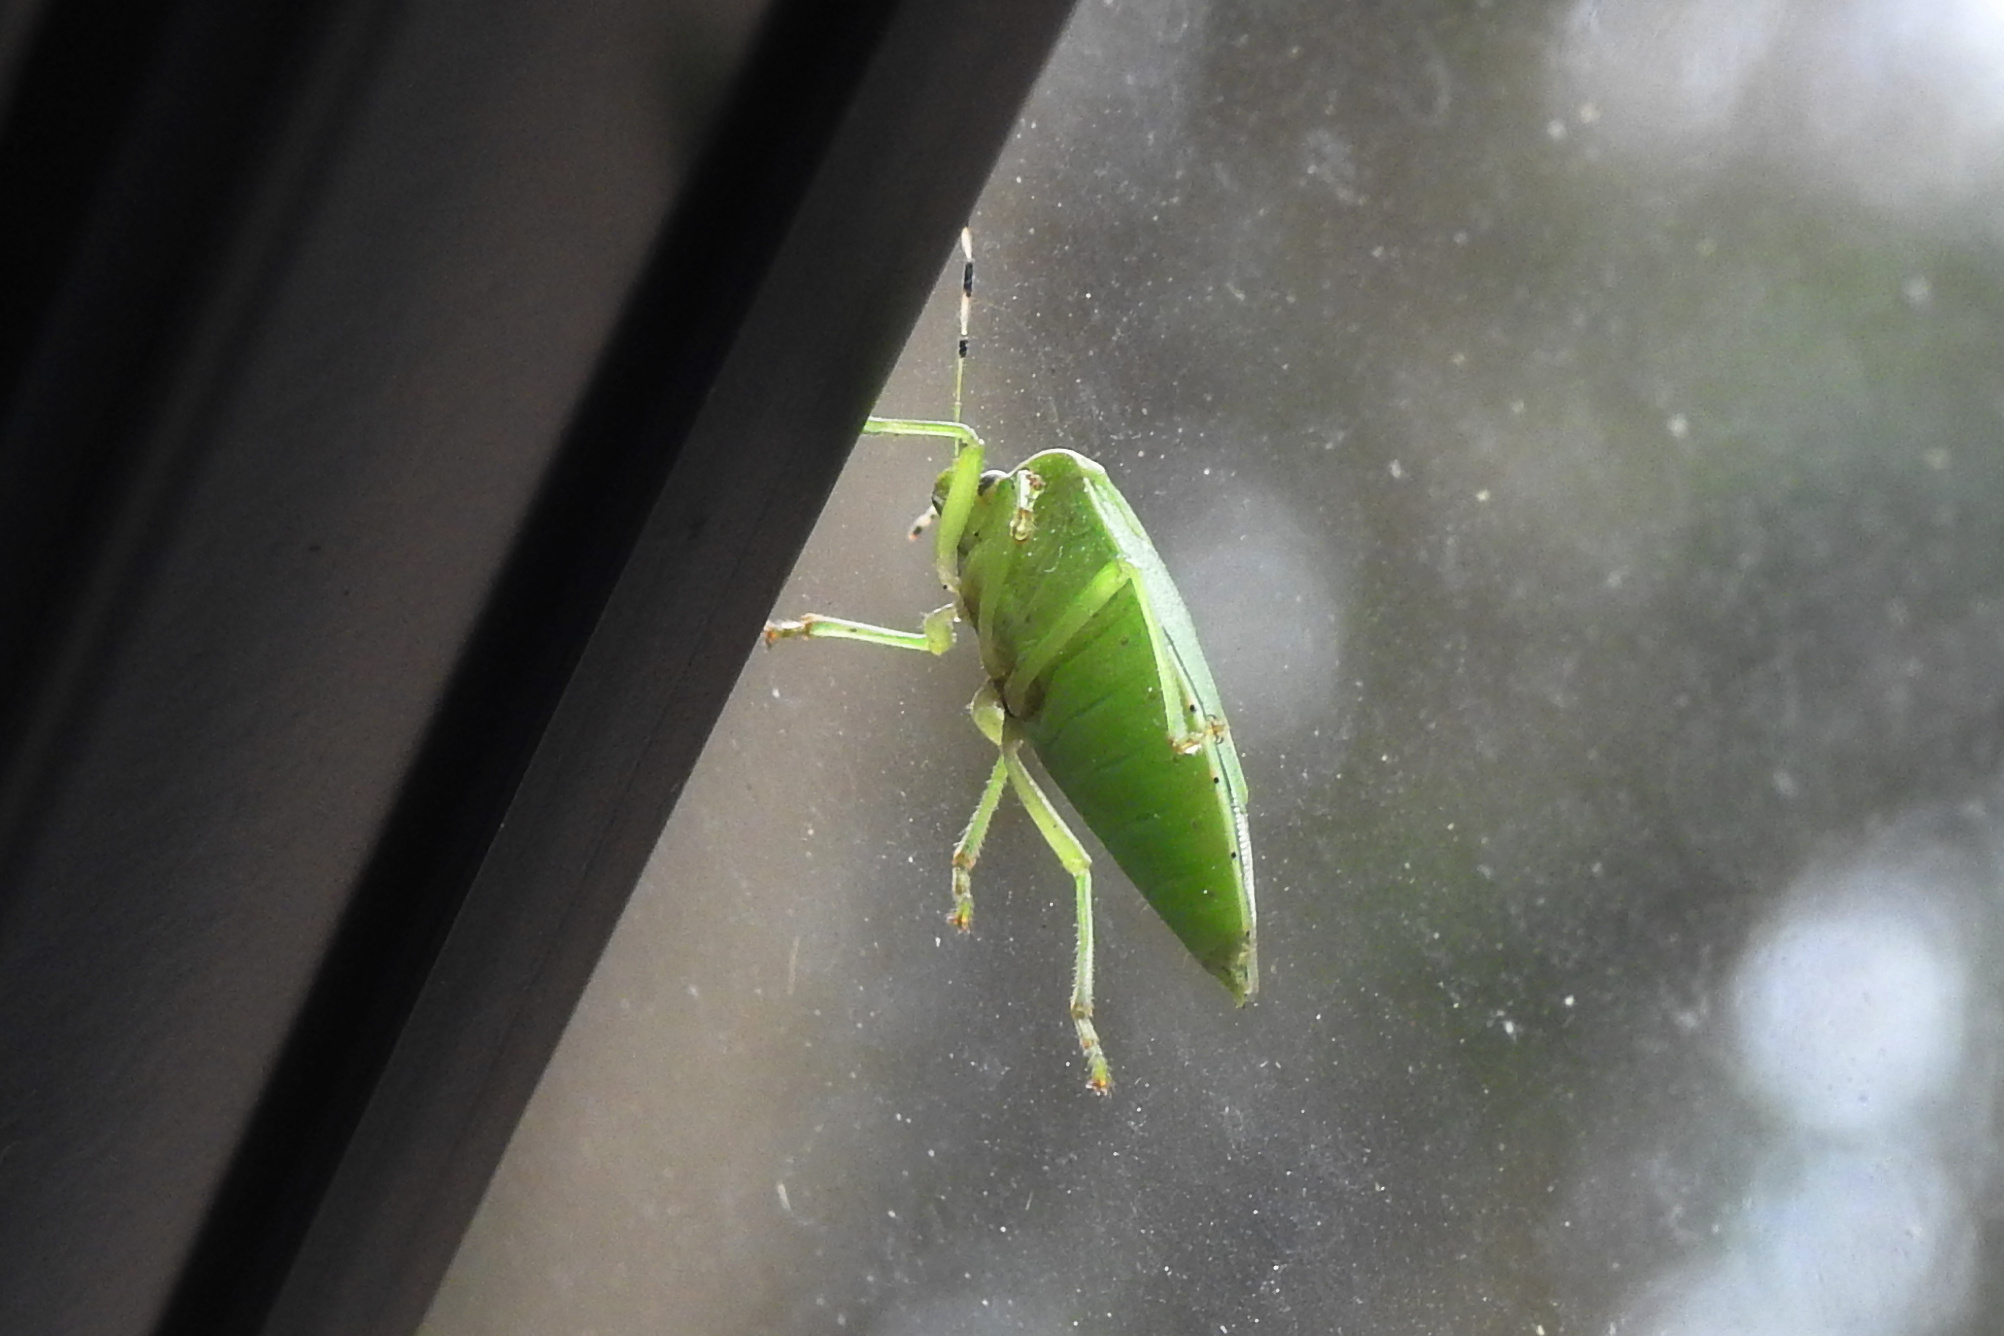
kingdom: Animalia
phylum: Arthropoda
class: Insecta
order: Hemiptera
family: Pentatomidae
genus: Chinavia
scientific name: Chinavia hilaris
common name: Green stink bug
